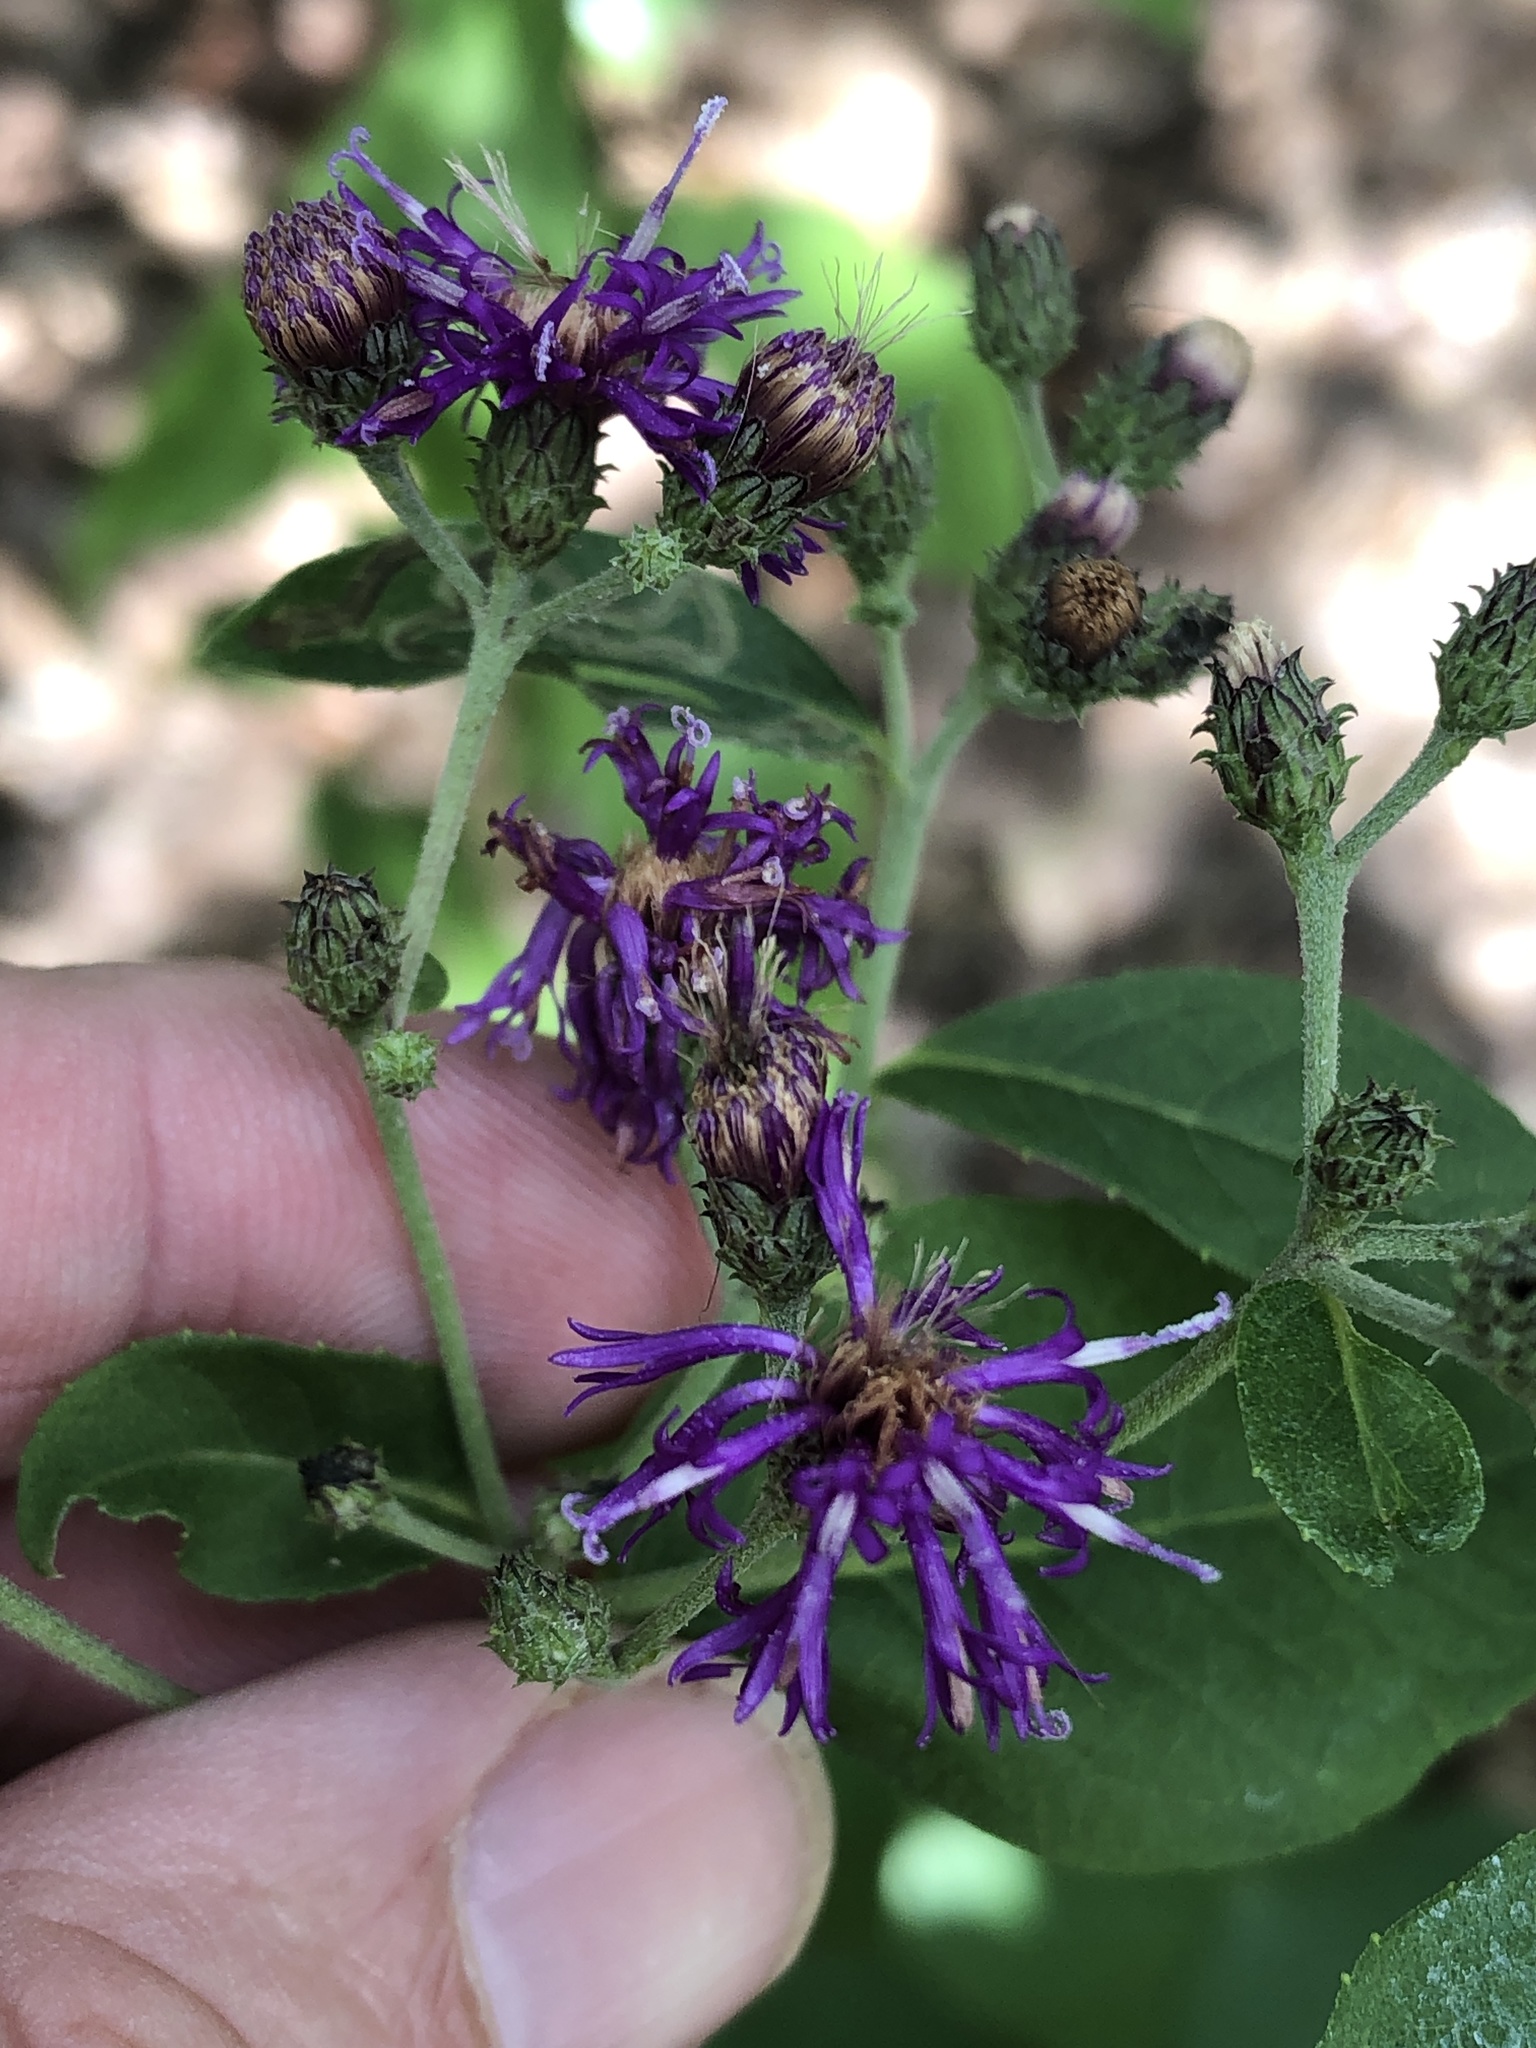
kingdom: Plantae
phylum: Tracheophyta
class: Magnoliopsida
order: Asterales
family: Asteraceae
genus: Vernonia
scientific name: Vernonia baldwinii
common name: Western ironweed
